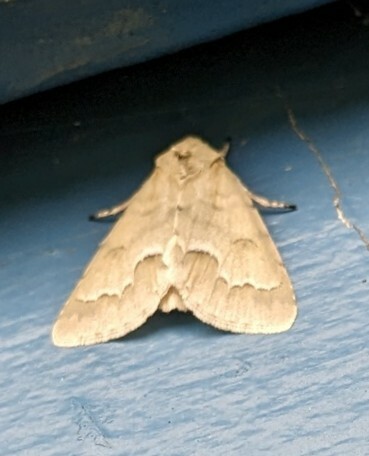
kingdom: Animalia
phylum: Arthropoda
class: Insecta
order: Lepidoptera
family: Noctuidae
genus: Acronicta
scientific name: Acronicta innotata
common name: Unmarked dagger
